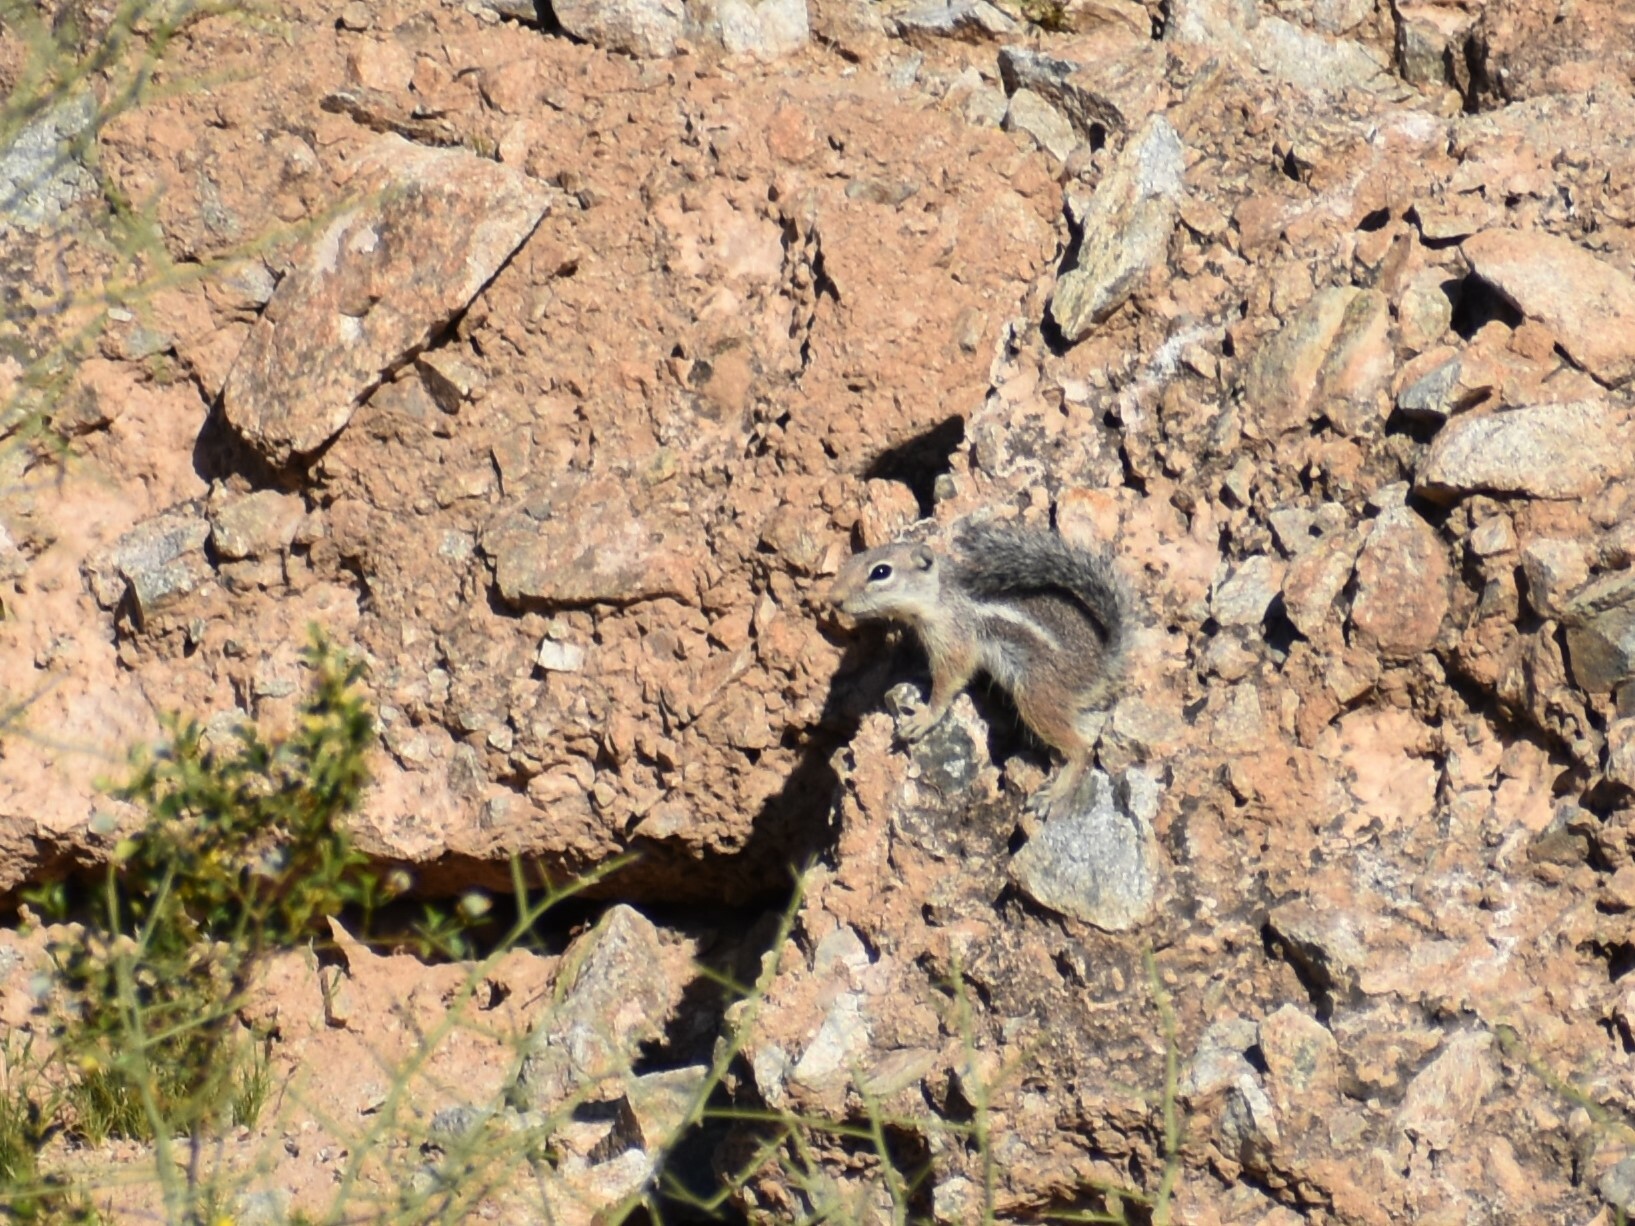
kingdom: Animalia
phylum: Chordata
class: Mammalia
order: Rodentia
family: Sciuridae
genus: Ammospermophilus
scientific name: Ammospermophilus harrisii
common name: Harris's antelope squirrel
